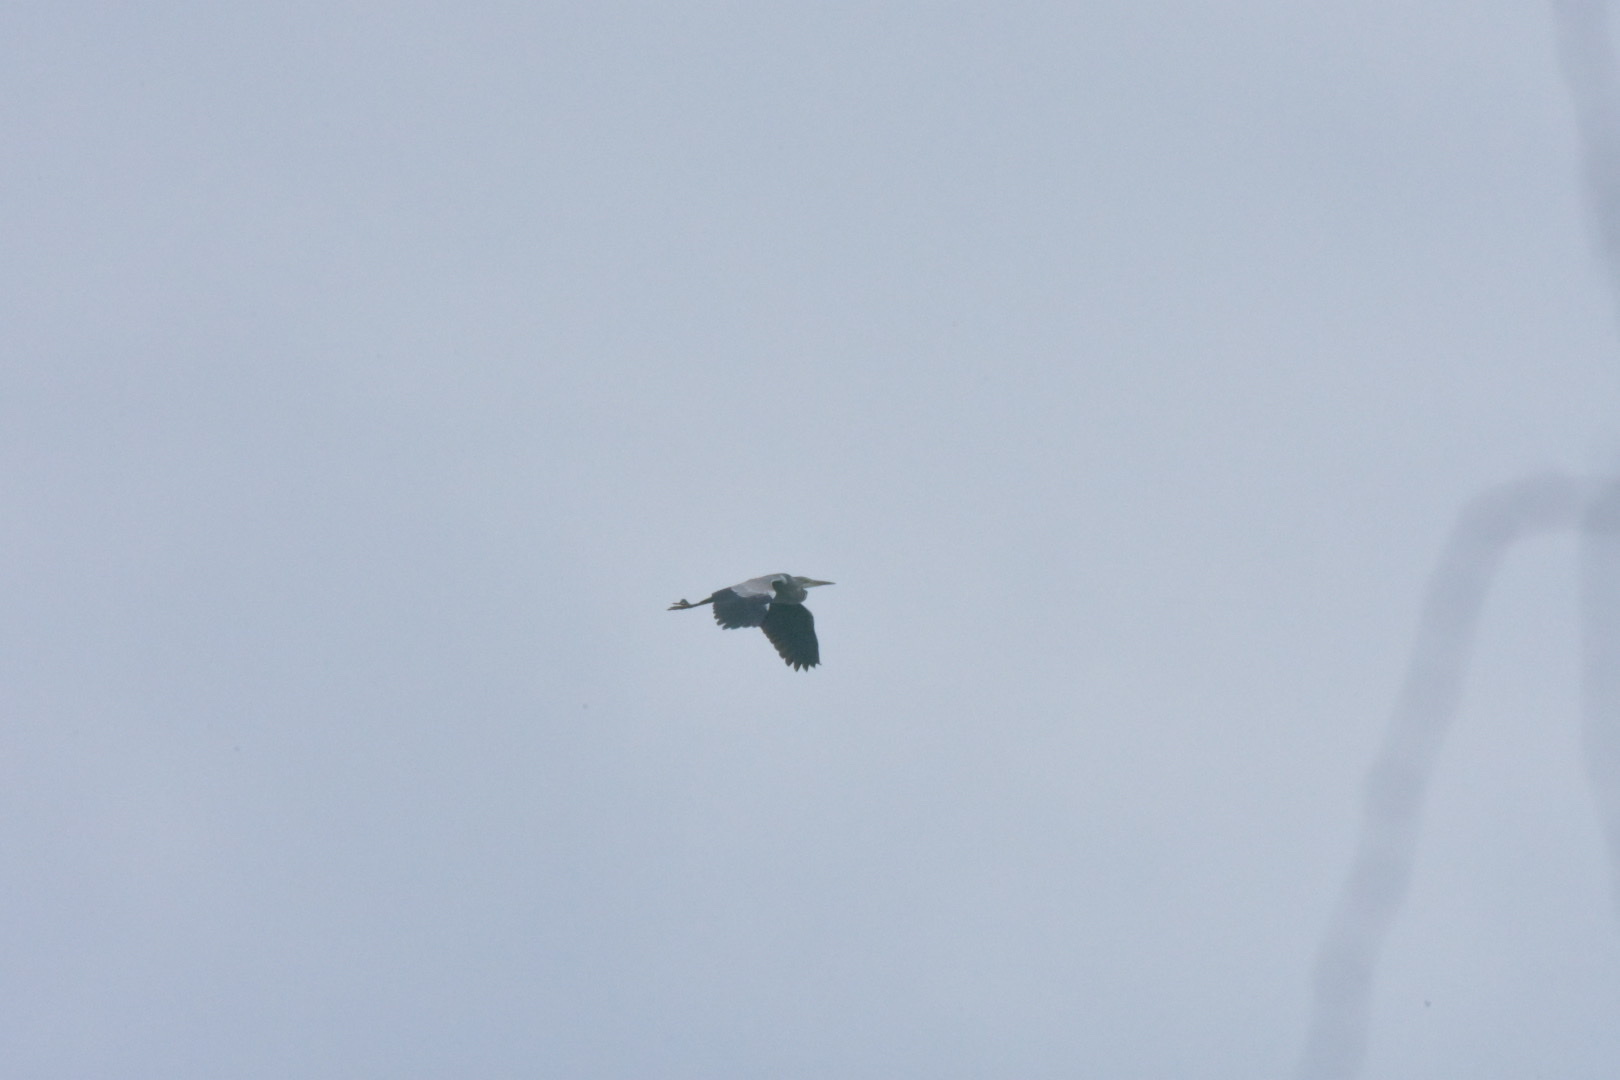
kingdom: Animalia
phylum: Chordata
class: Aves
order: Pelecaniformes
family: Ardeidae
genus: Ardea
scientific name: Ardea cinerea
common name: Grey heron
